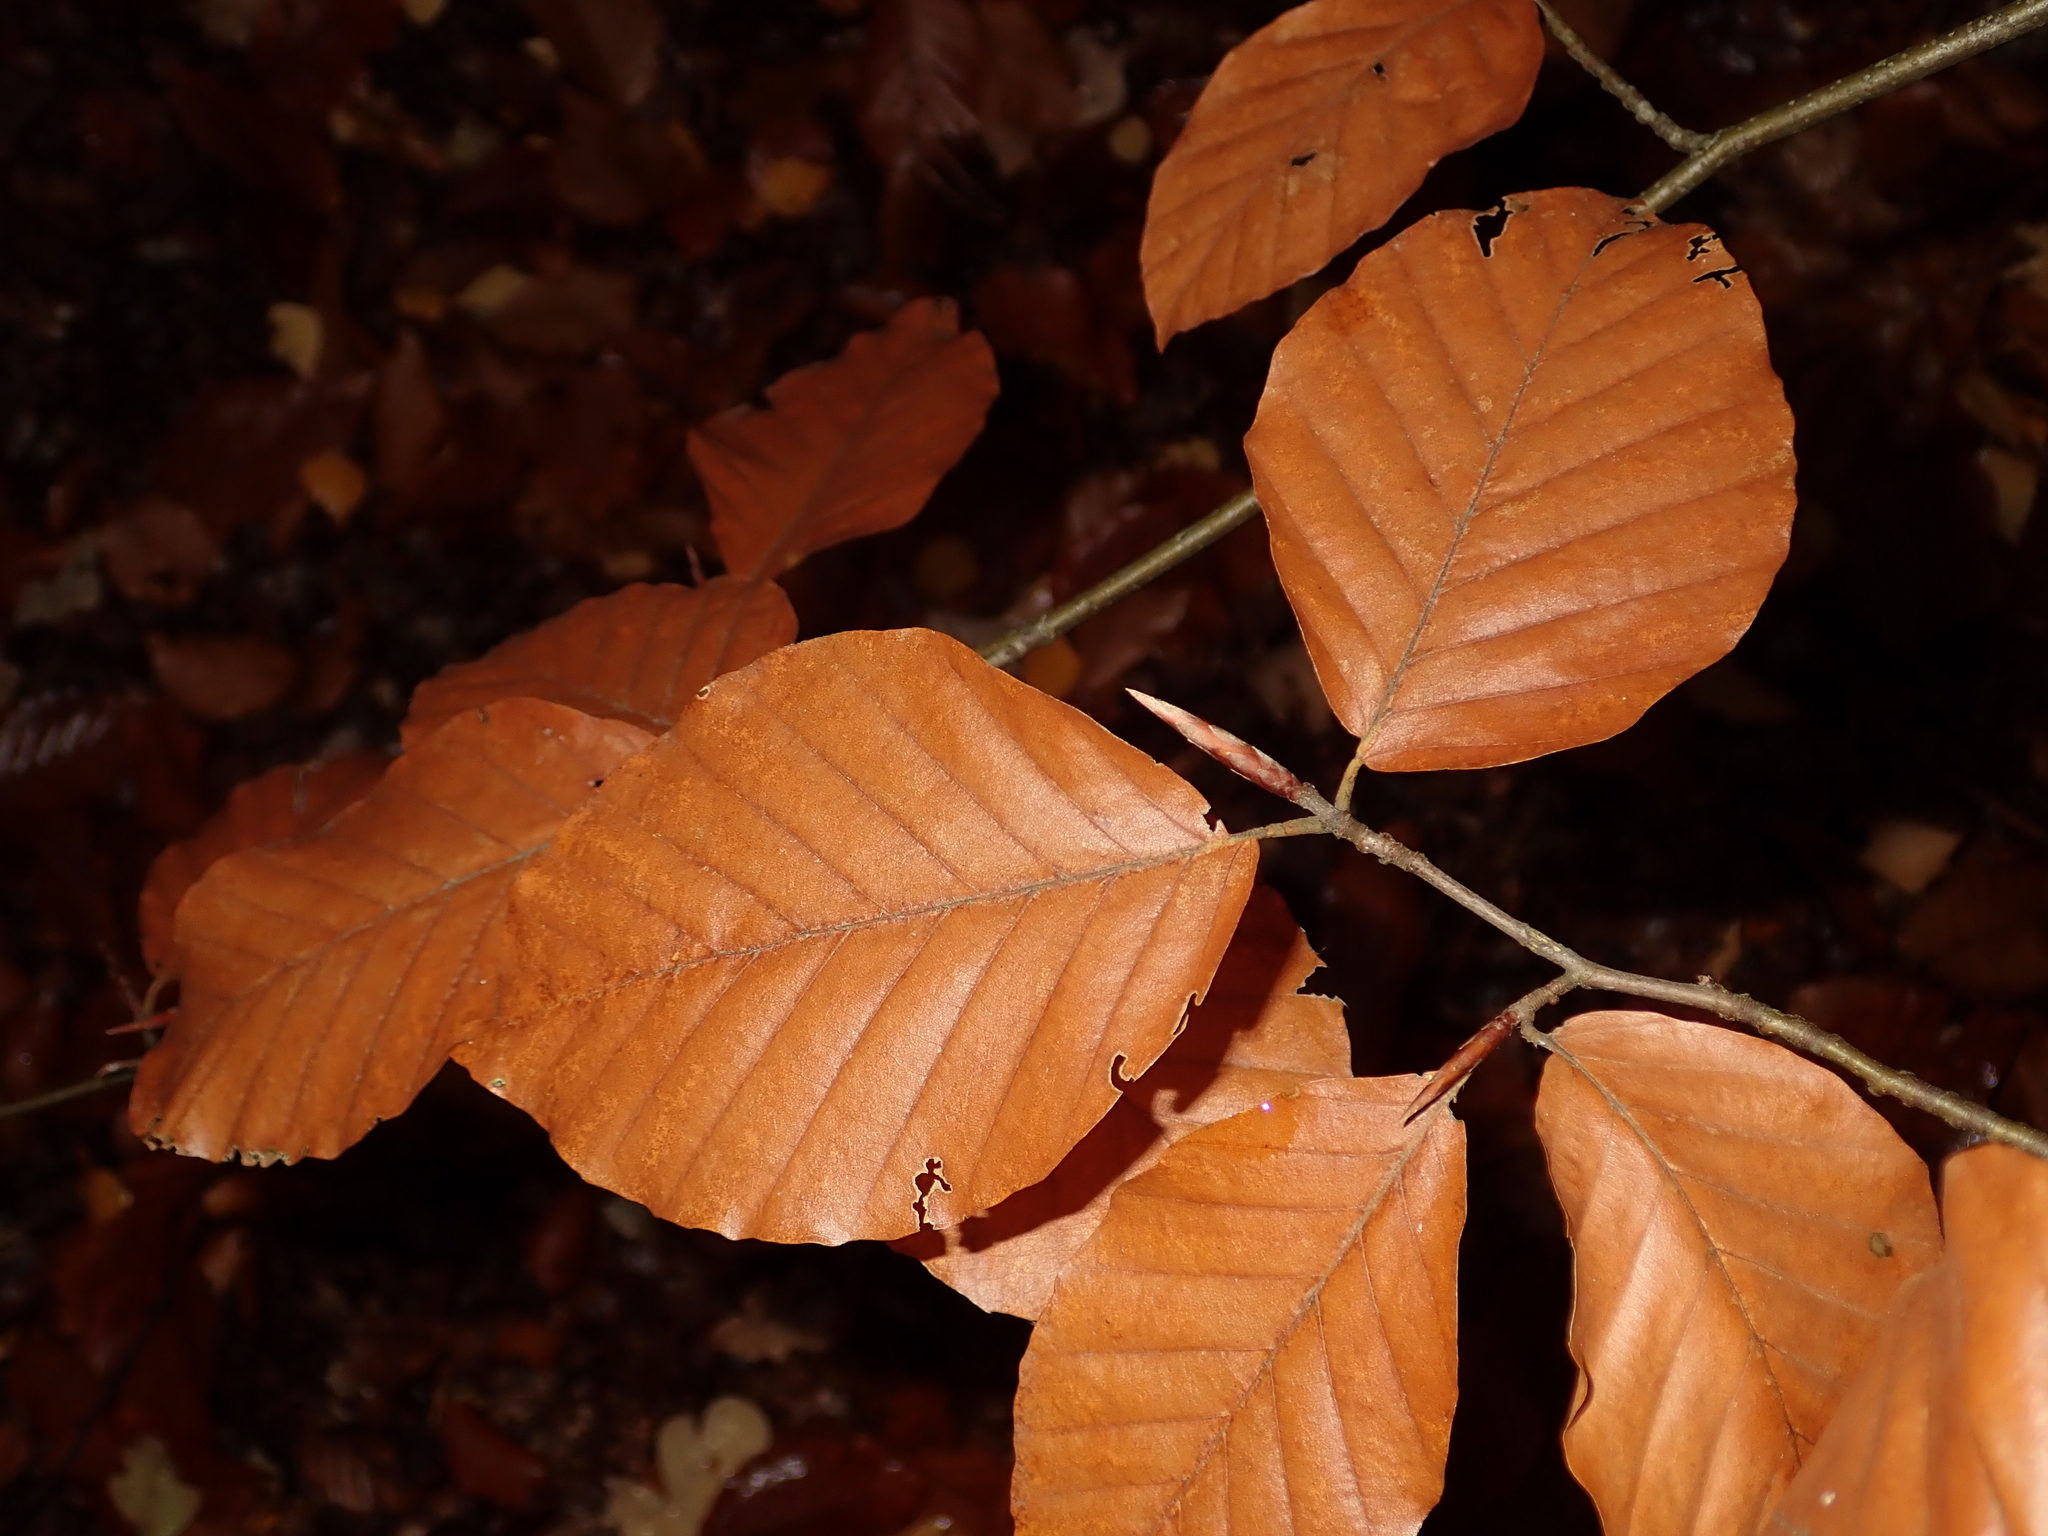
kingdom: Plantae
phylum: Tracheophyta
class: Magnoliopsida
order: Fagales
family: Fagaceae
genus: Fagus
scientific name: Fagus sylvatica
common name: Beech
